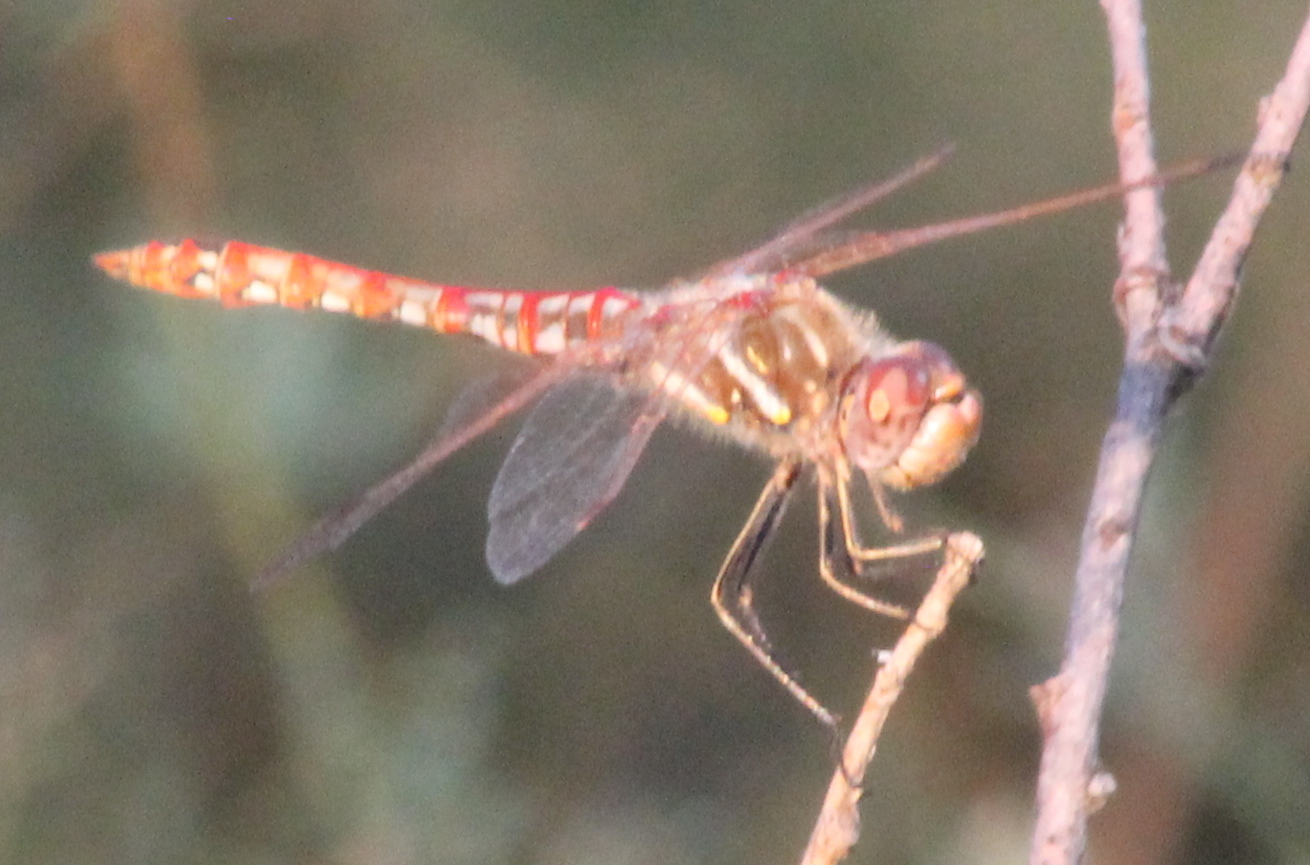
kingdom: Animalia
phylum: Arthropoda
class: Insecta
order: Odonata
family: Libellulidae
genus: Sympetrum
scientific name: Sympetrum corruptum
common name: Variegated meadowhawk
